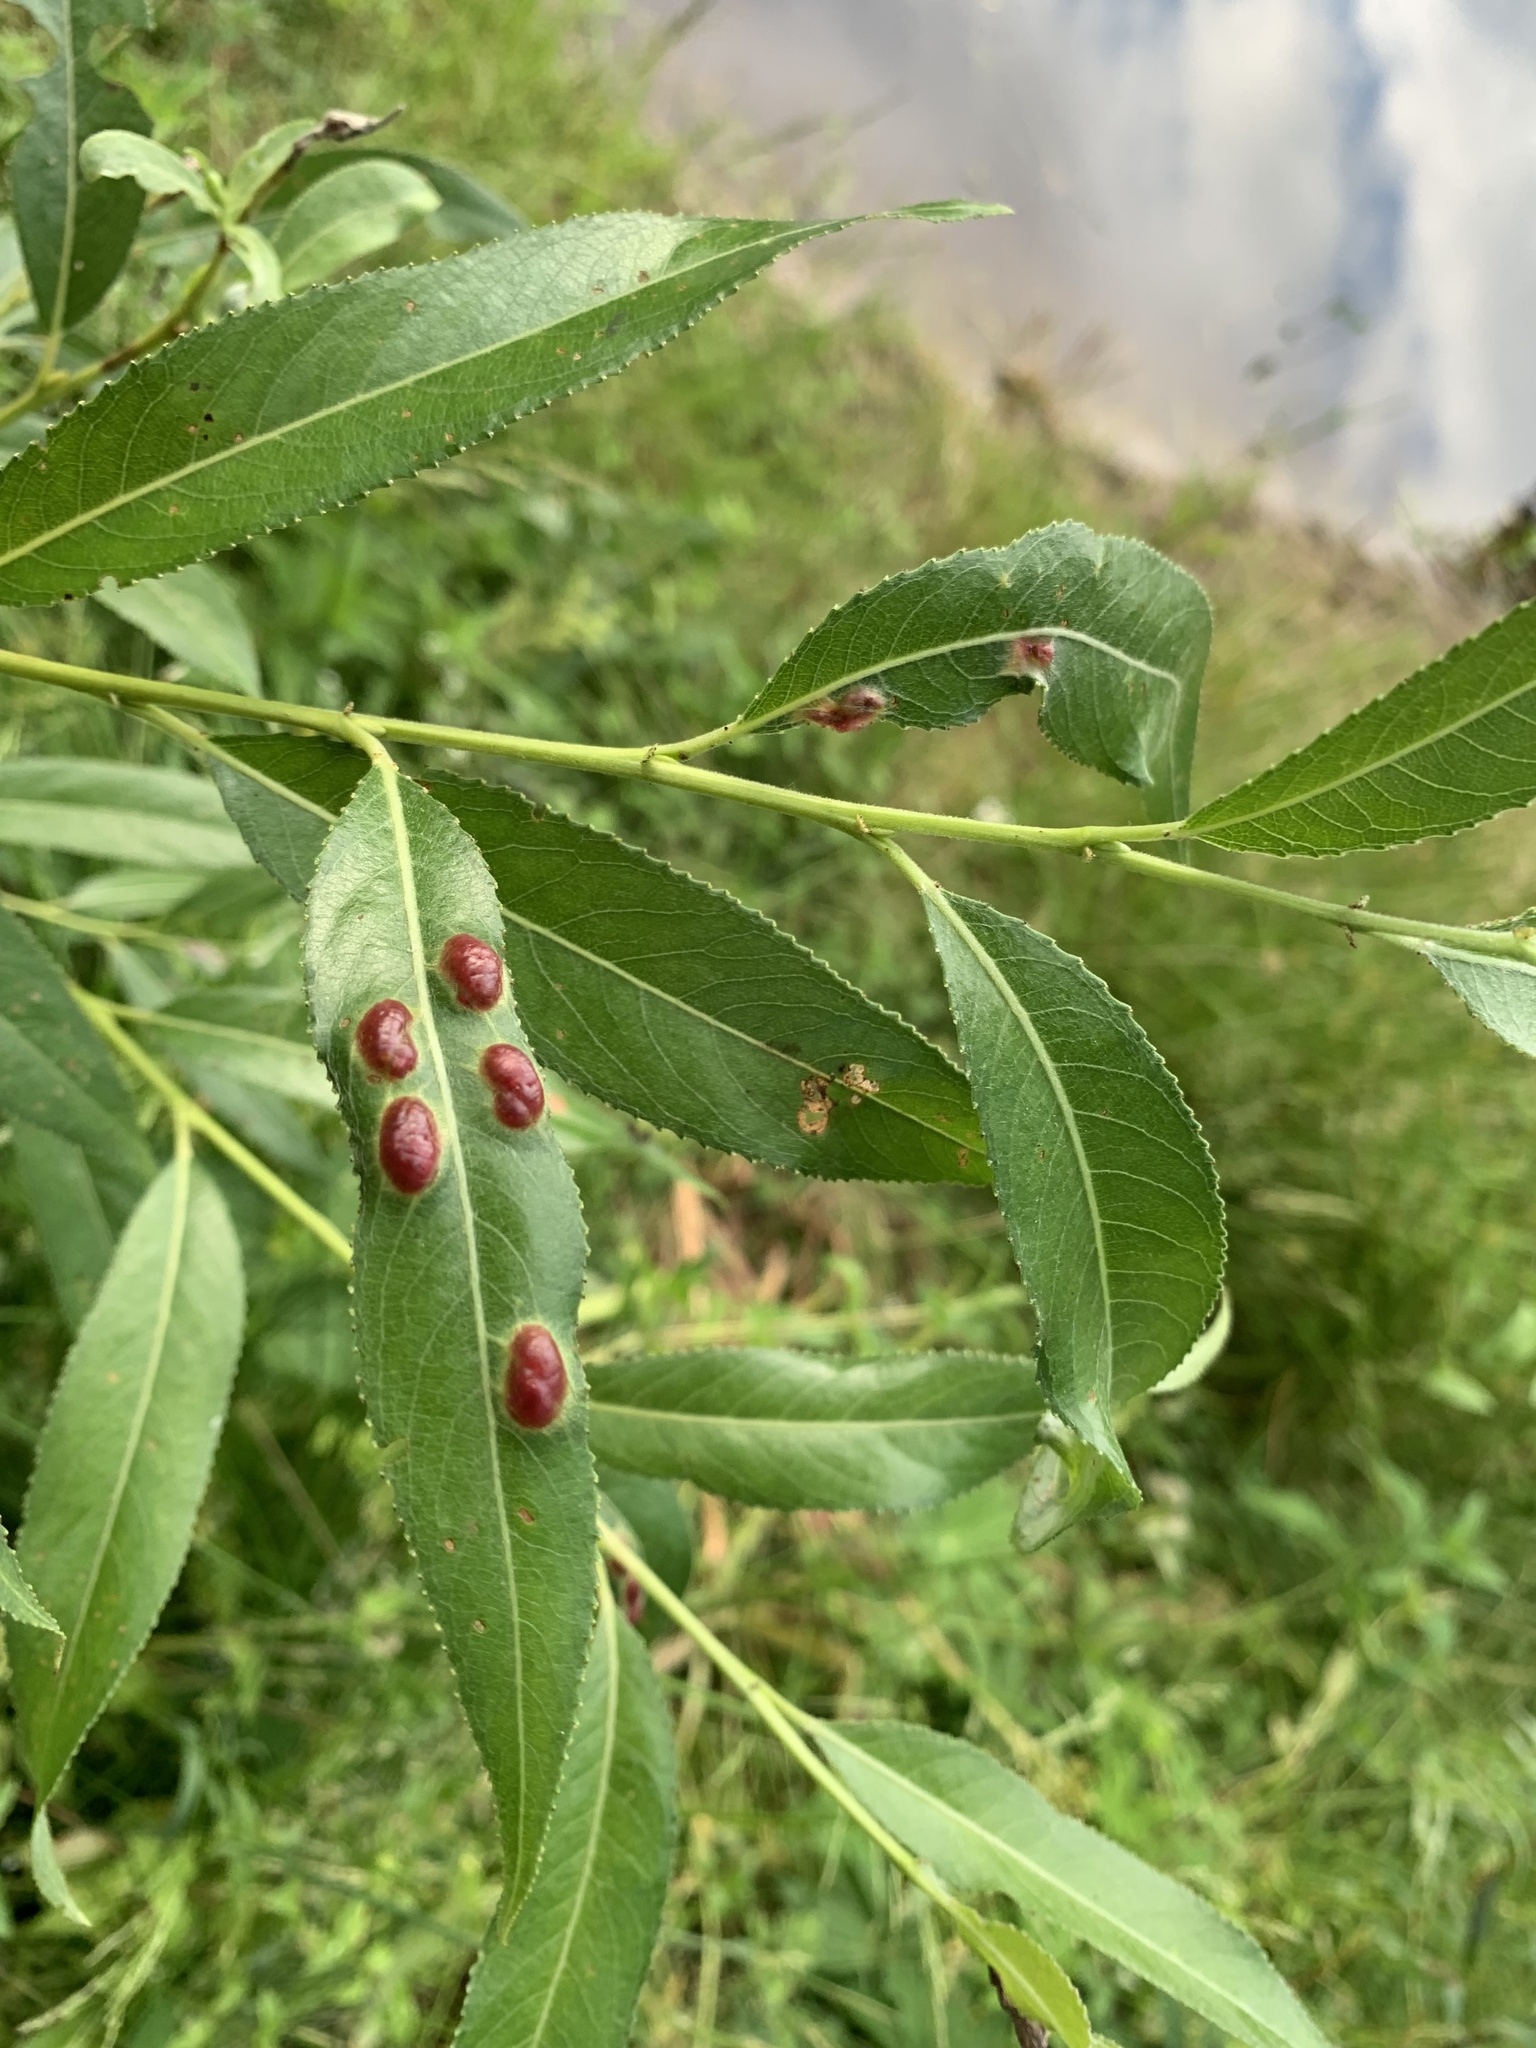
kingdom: Animalia
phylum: Arthropoda
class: Insecta
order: Hymenoptera
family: Tenthredinidae
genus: Pontania
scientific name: Pontania proxima
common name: Common sawfly
